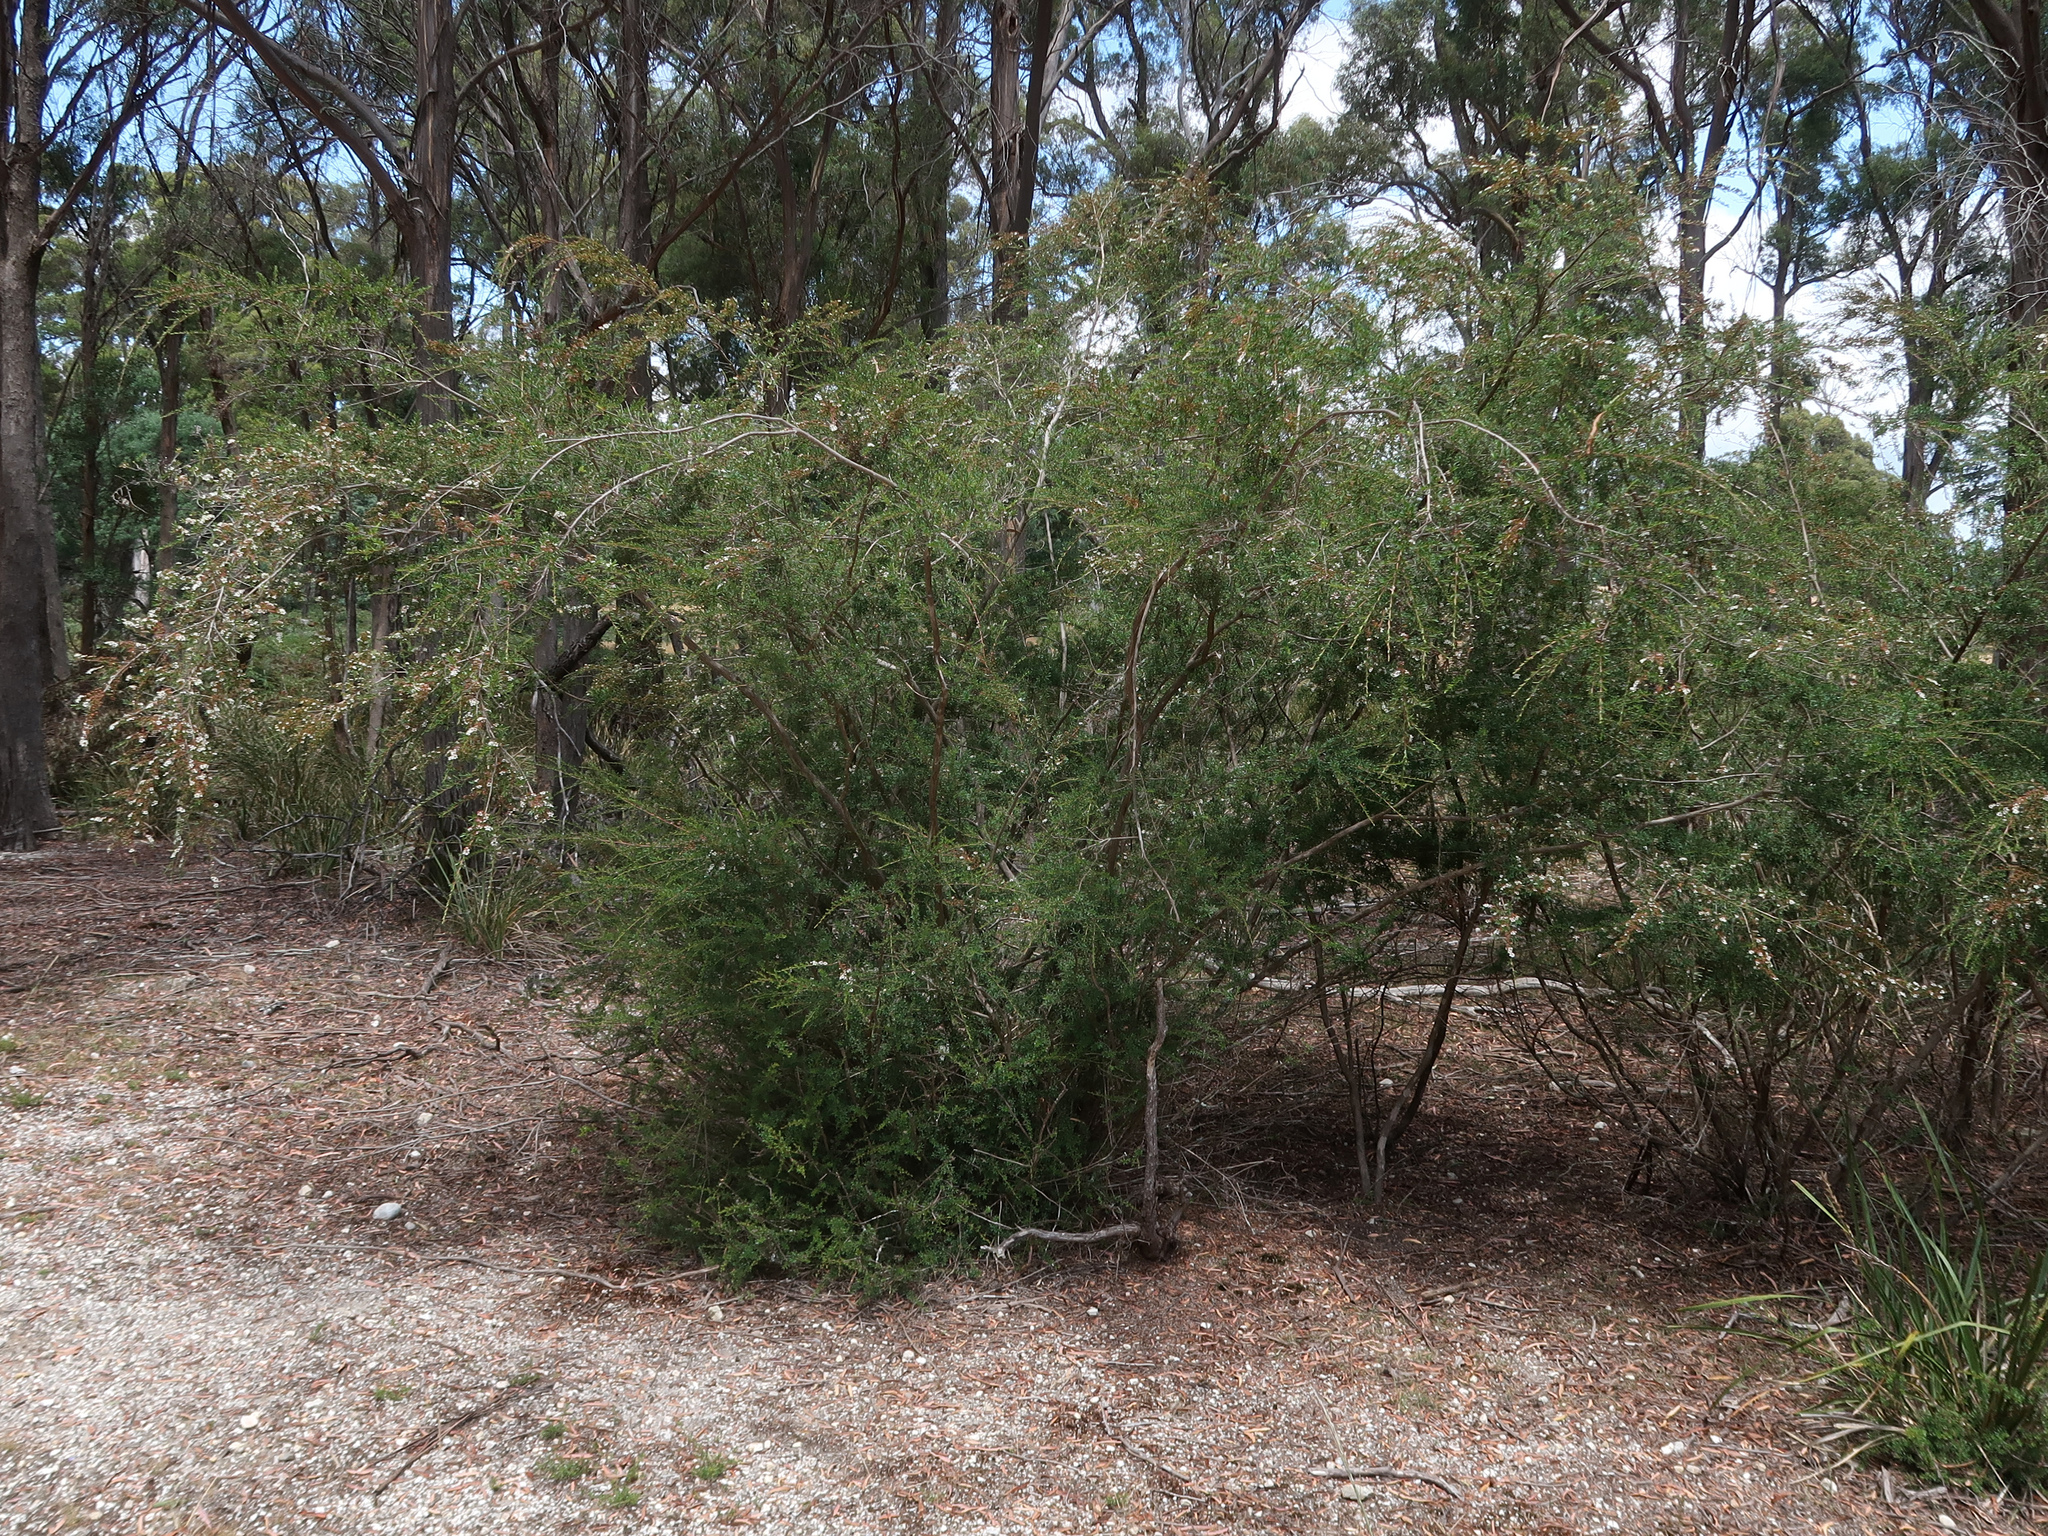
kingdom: Plantae
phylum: Tracheophyta
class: Magnoliopsida
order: Myrtales
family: Myrtaceae
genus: Kunzea
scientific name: Kunzea ericoides
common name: Burgan
